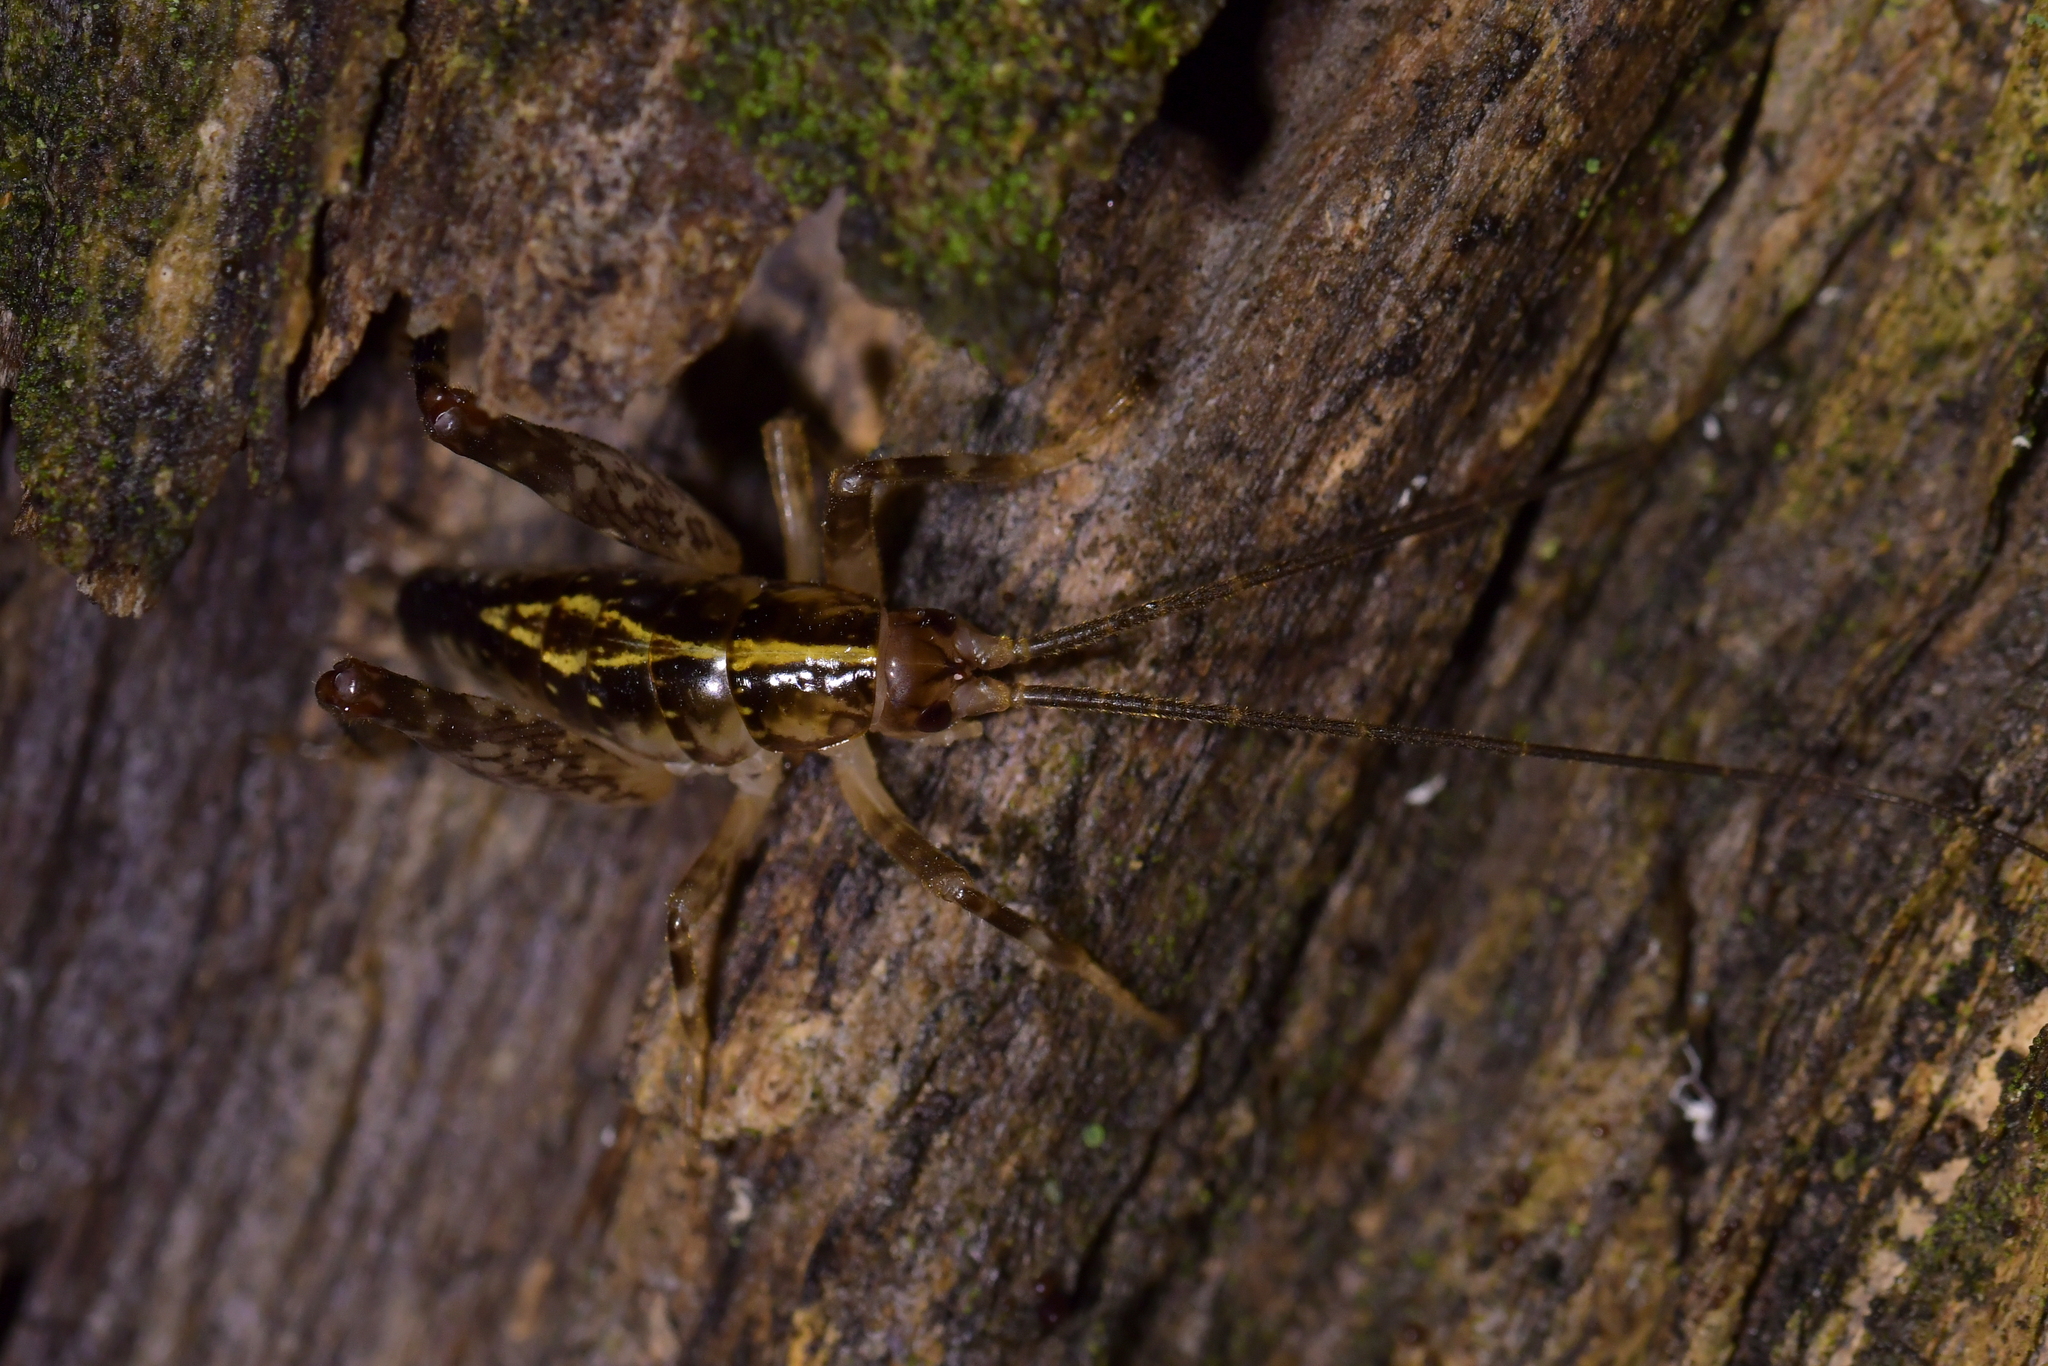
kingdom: Animalia
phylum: Arthropoda
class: Insecta
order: Orthoptera
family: Rhaphidophoridae
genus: Talitropsis
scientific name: Talitropsis sedilloti
